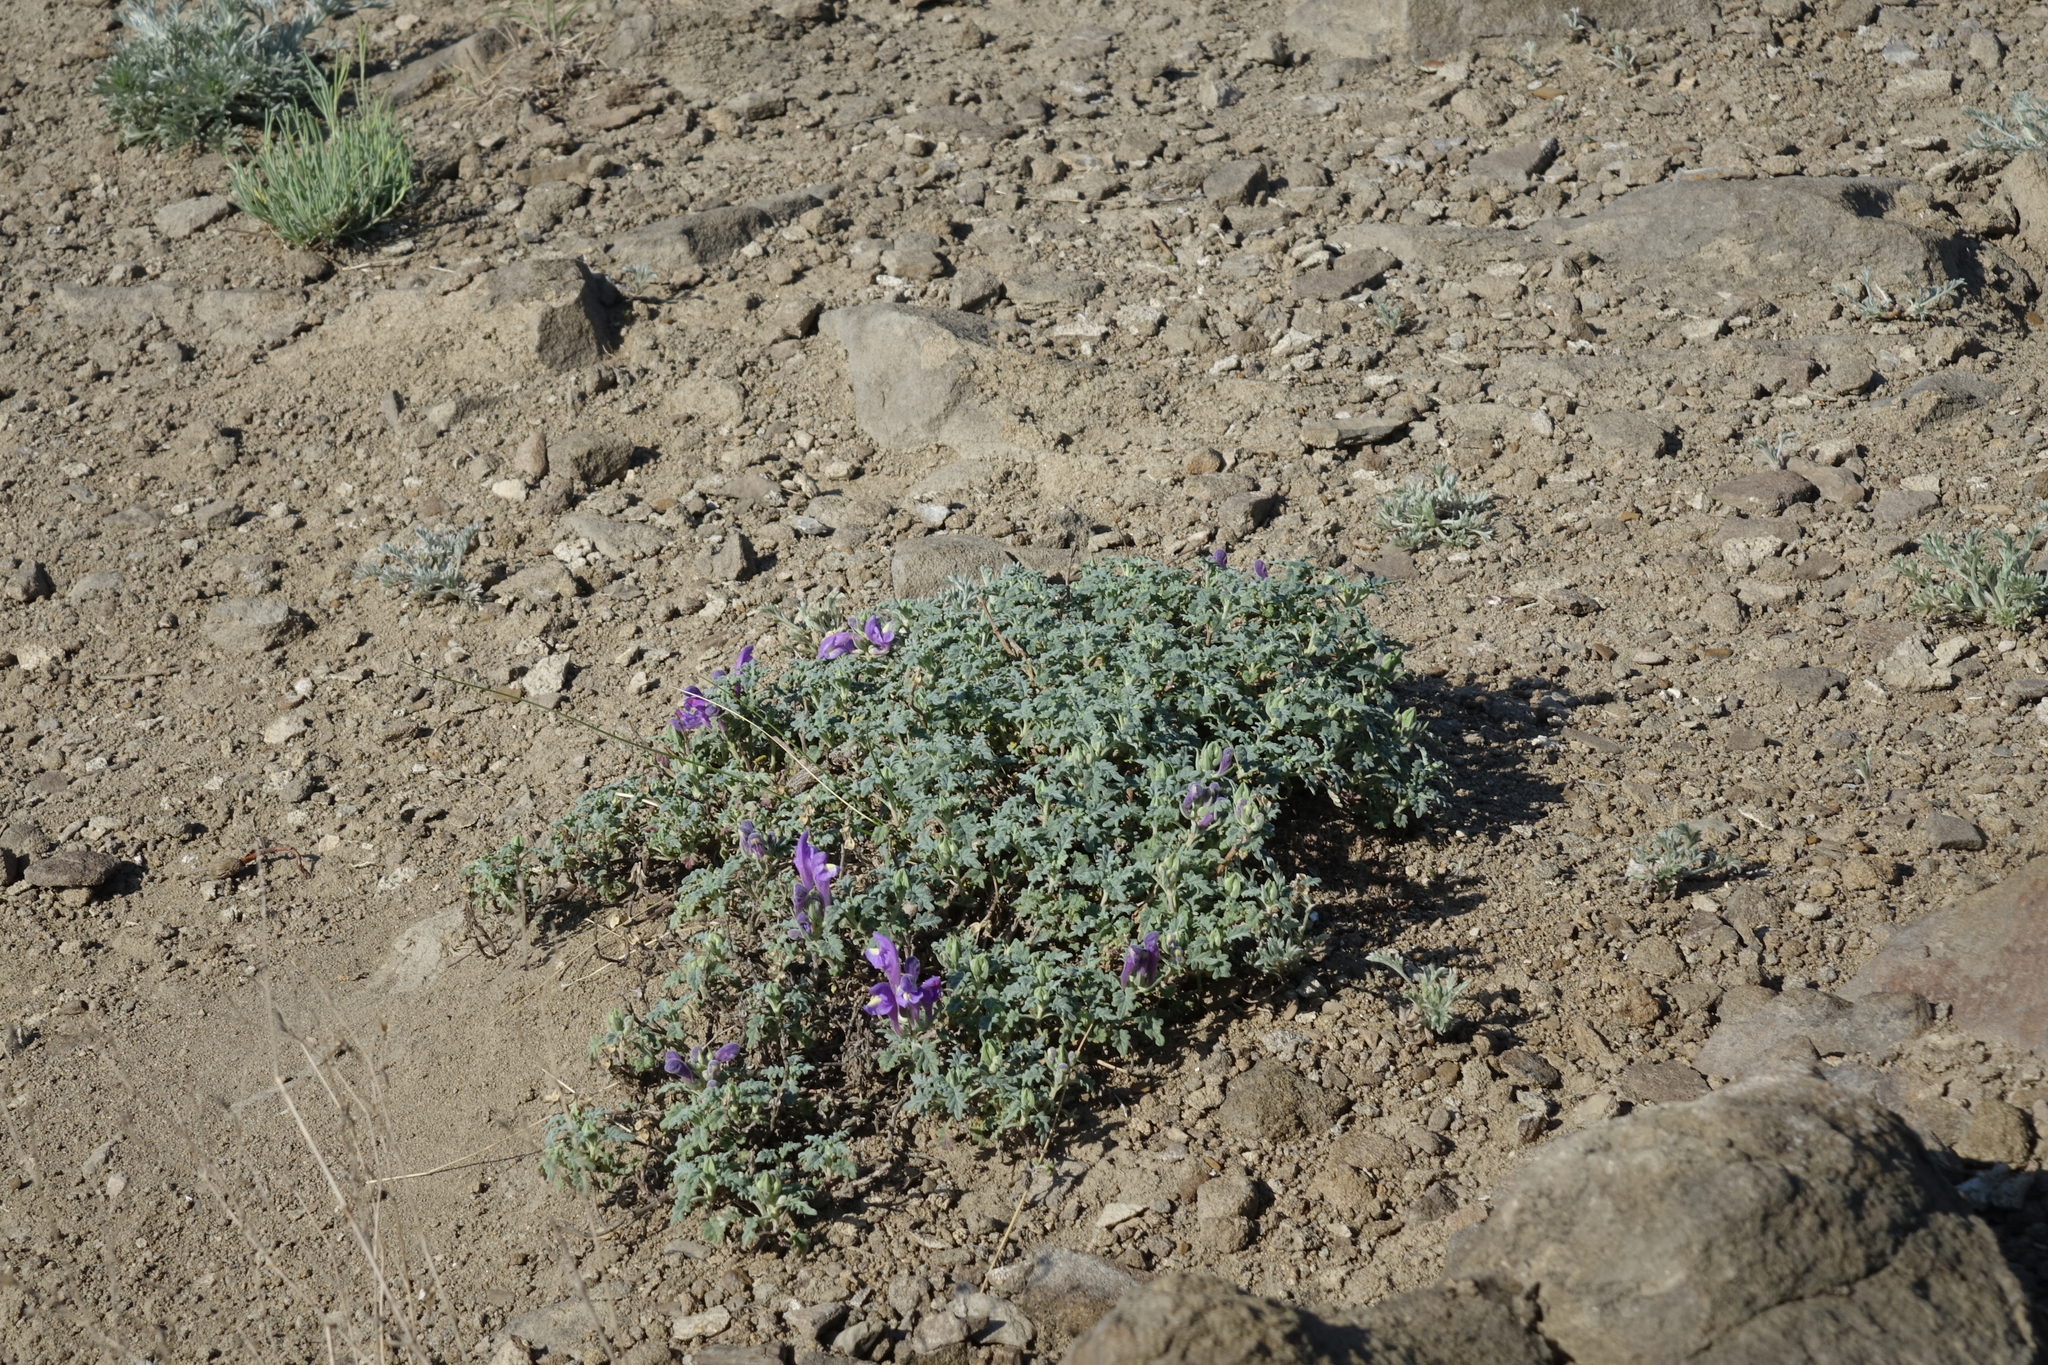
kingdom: Plantae
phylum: Tracheophyta
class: Magnoliopsida
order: Lamiales
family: Lamiaceae
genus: Scutellaria
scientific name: Scutellaria tuvensis
